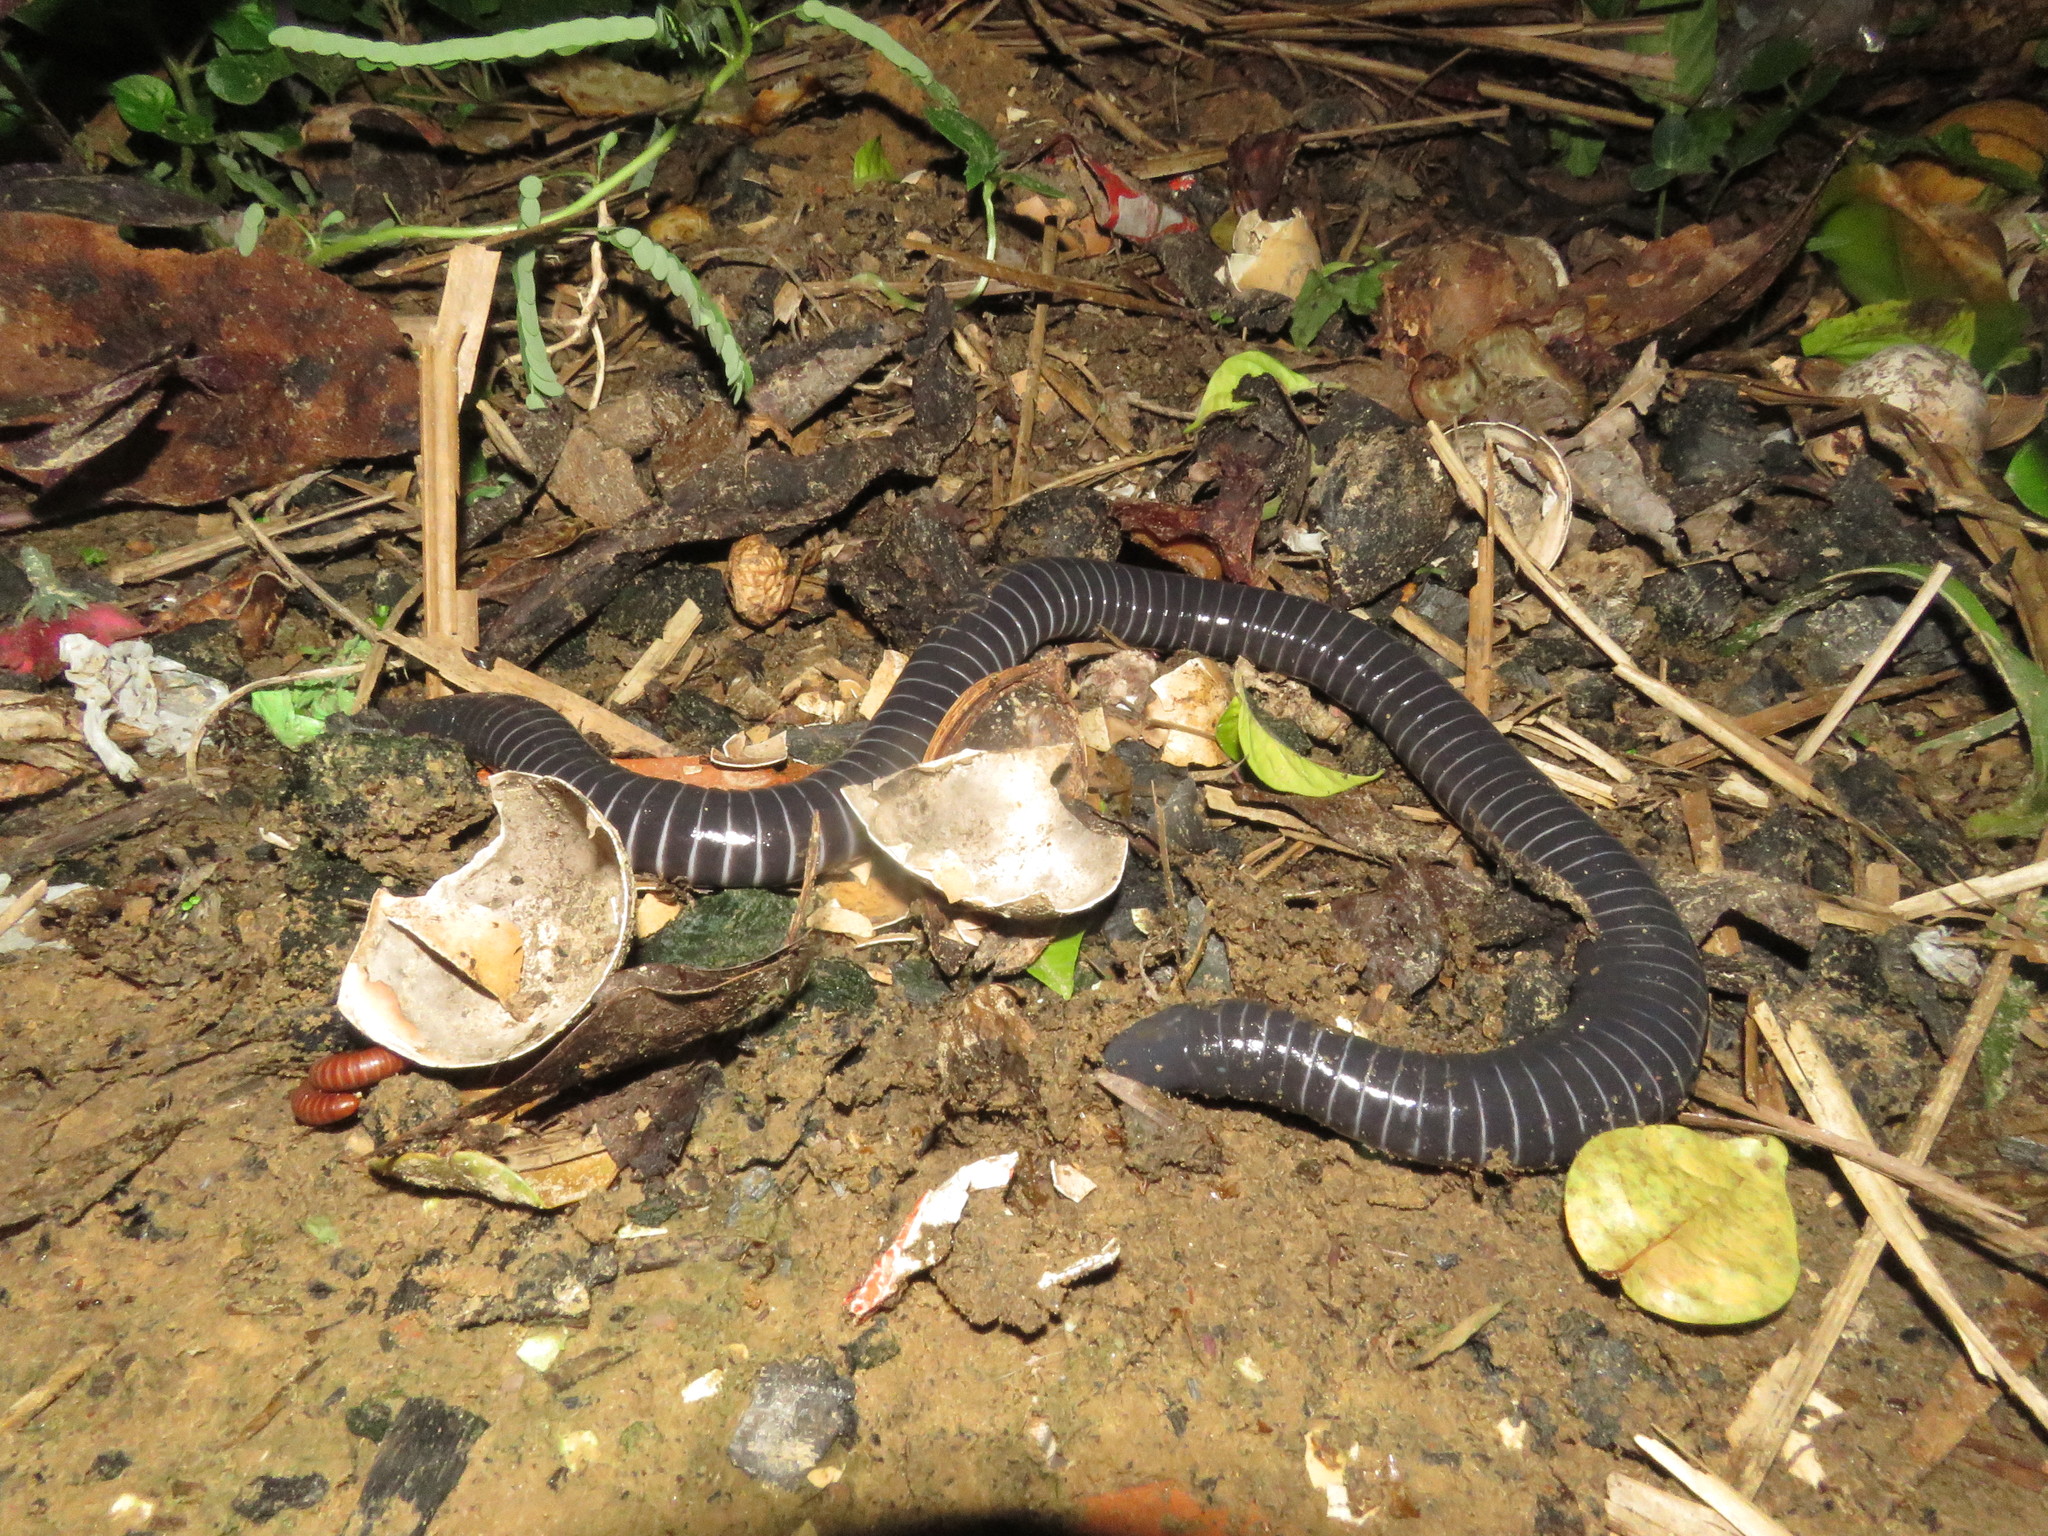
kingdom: Animalia
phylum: Chordata
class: Amphibia
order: Gymnophiona
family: Siphonopidae
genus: Siphonops
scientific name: Siphonops annulatus
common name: Ringed caecilia
